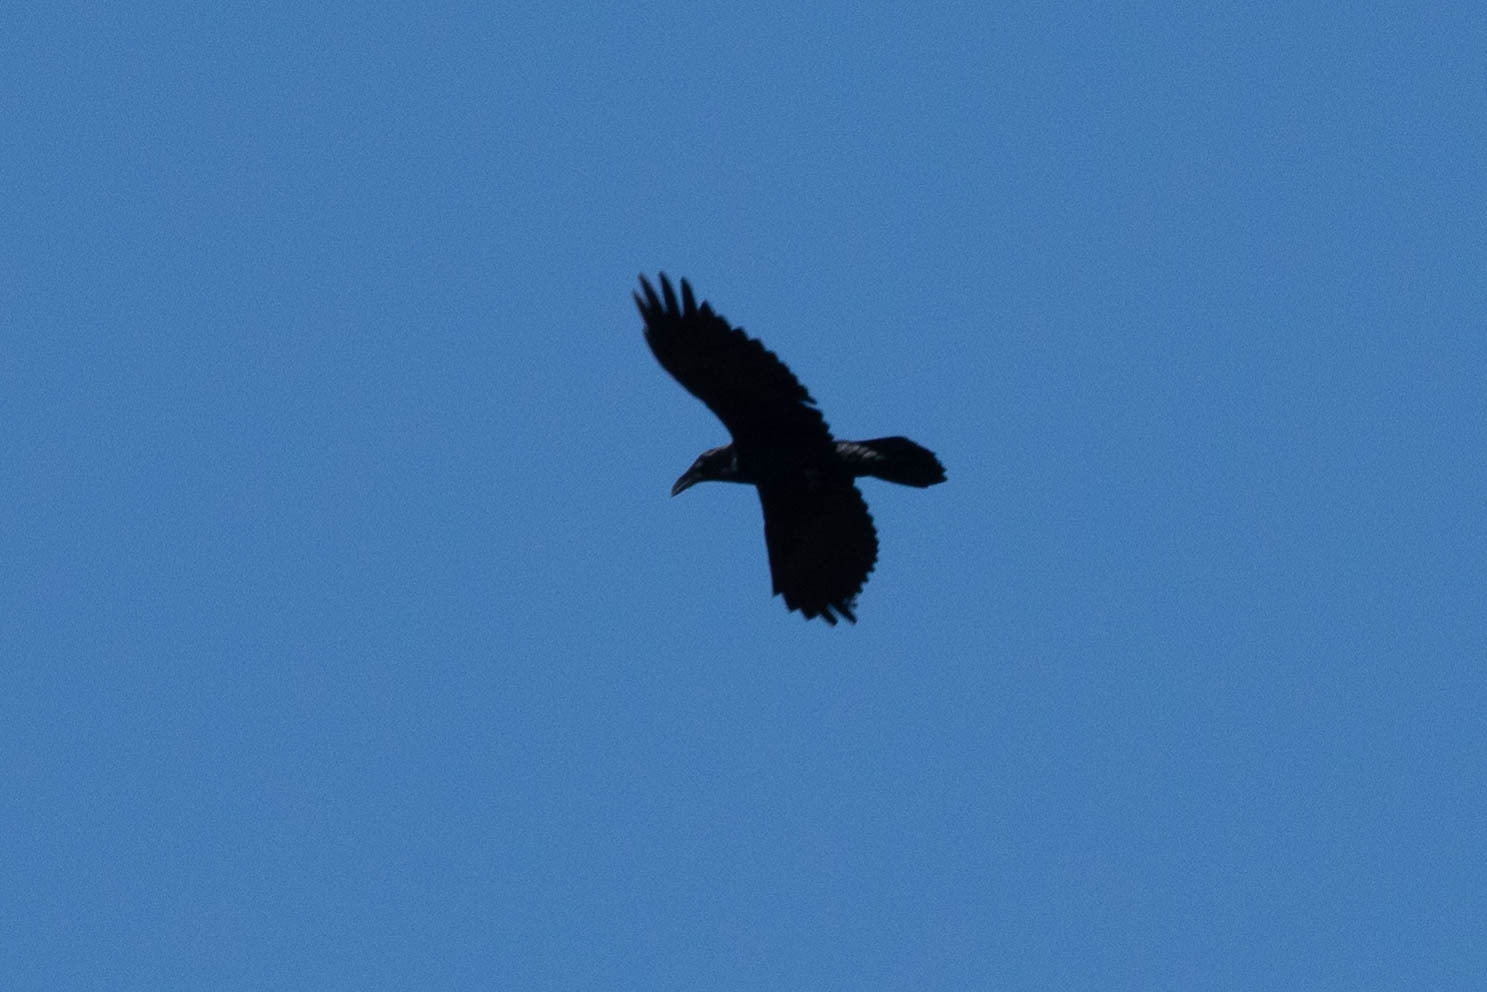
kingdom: Animalia
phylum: Chordata
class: Aves
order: Passeriformes
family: Corvidae
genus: Corvus
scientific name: Corvus corax
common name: Common raven
